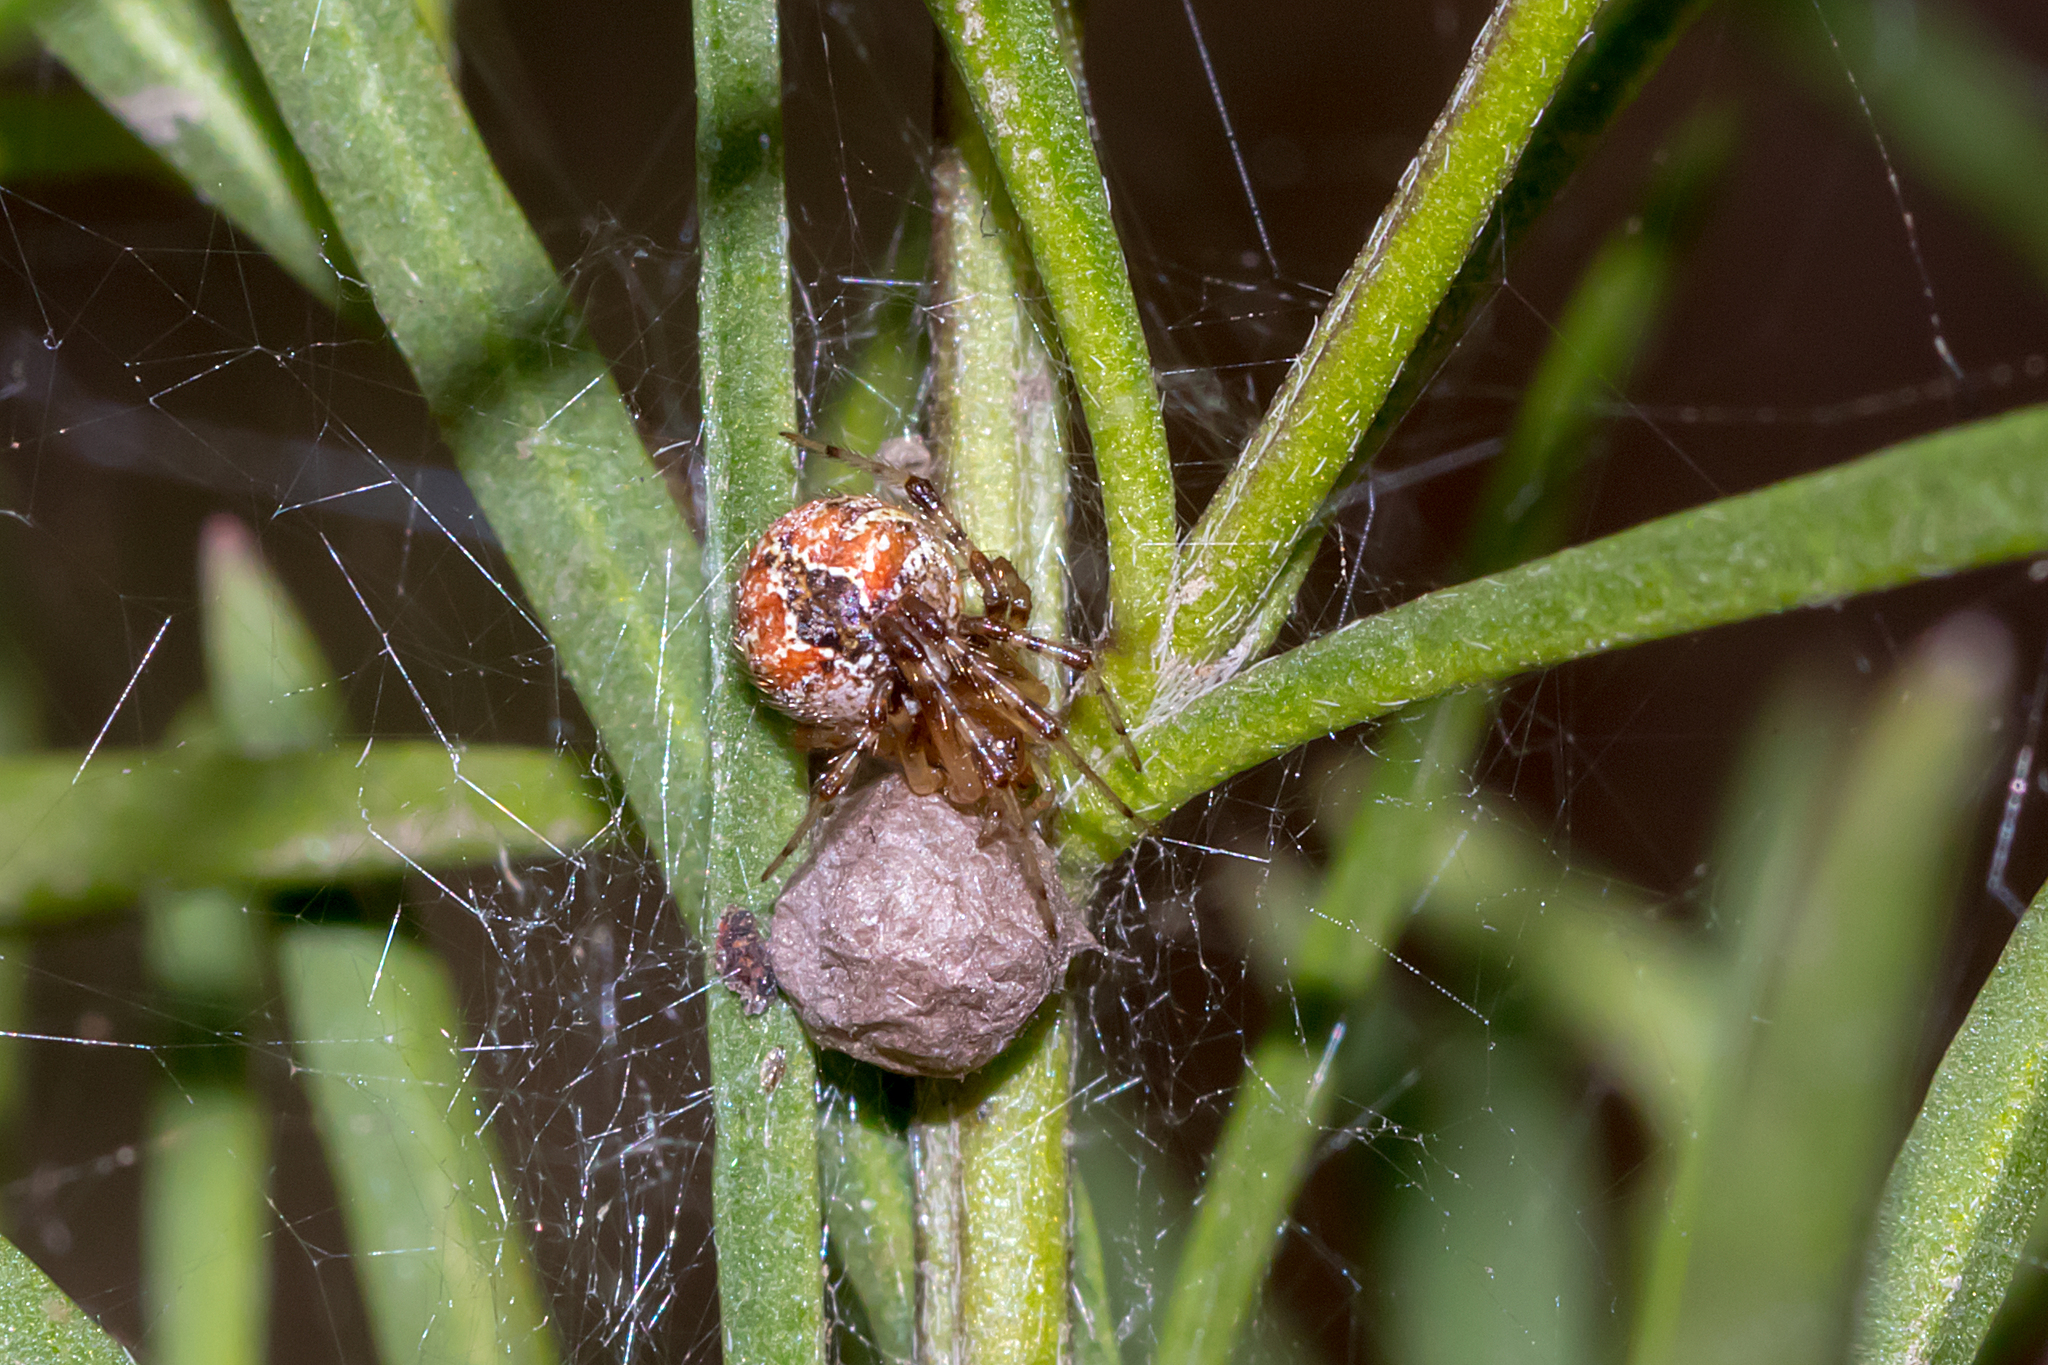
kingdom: Animalia
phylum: Arthropoda
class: Arachnida
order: Araneae
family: Theridiidae
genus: Cryptachaea
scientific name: Cryptachaea veruculata
